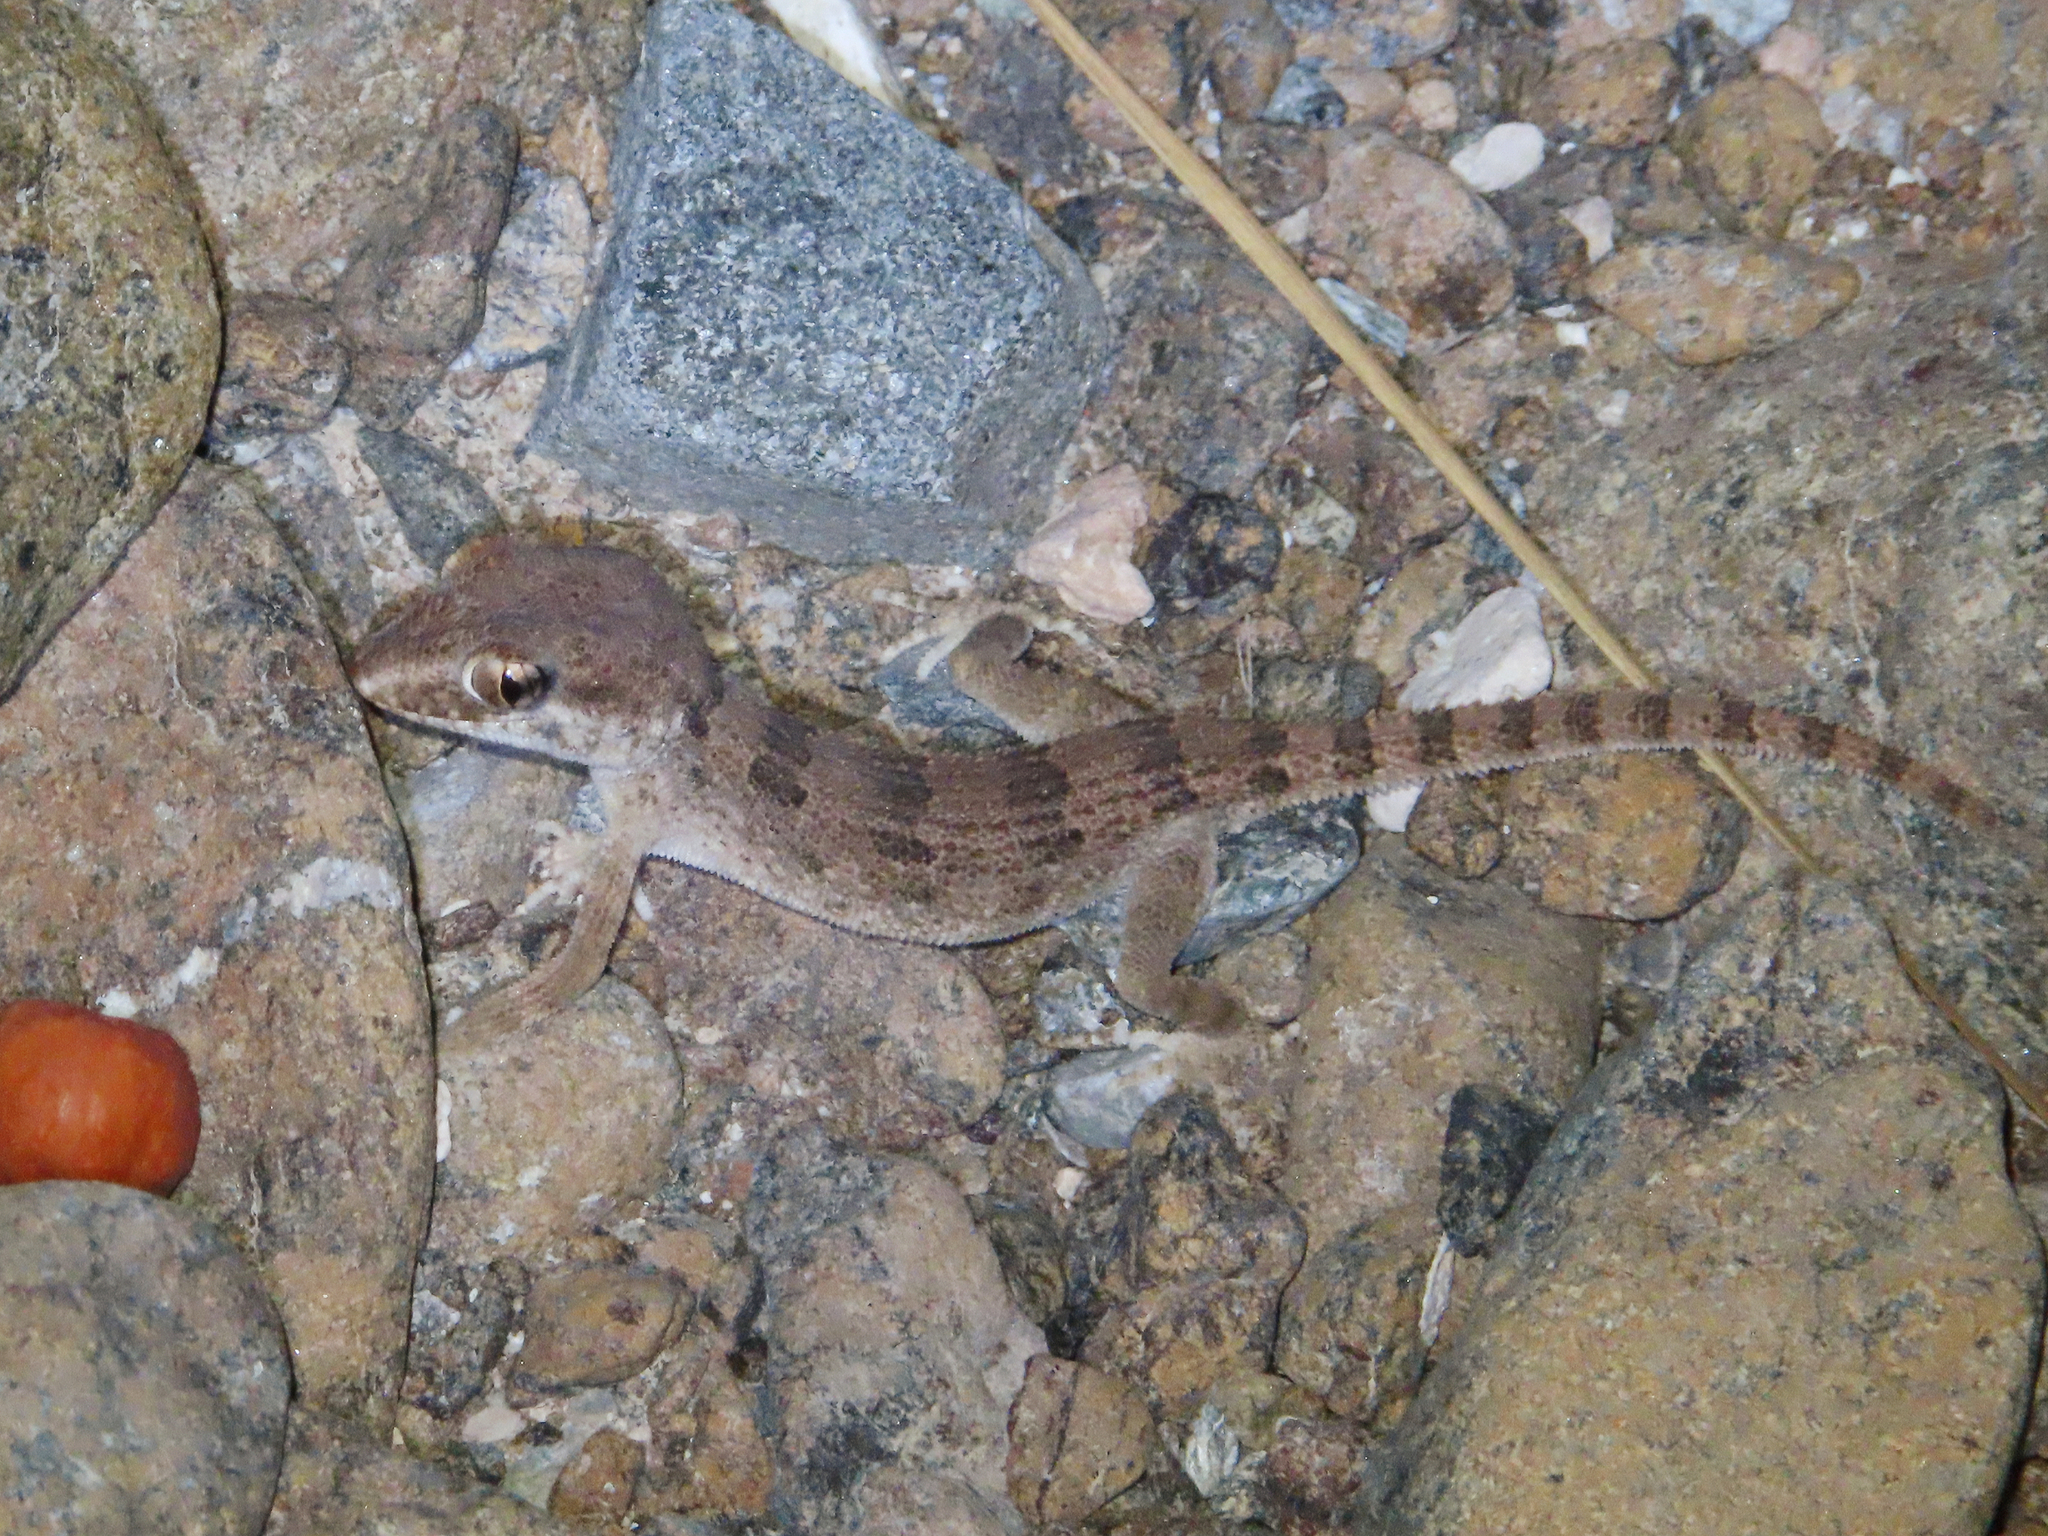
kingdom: Animalia
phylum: Chordata
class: Squamata
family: Gekkonidae
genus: Trachydactylus
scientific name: Trachydactylus hajarensis
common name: Banded rock gecko
